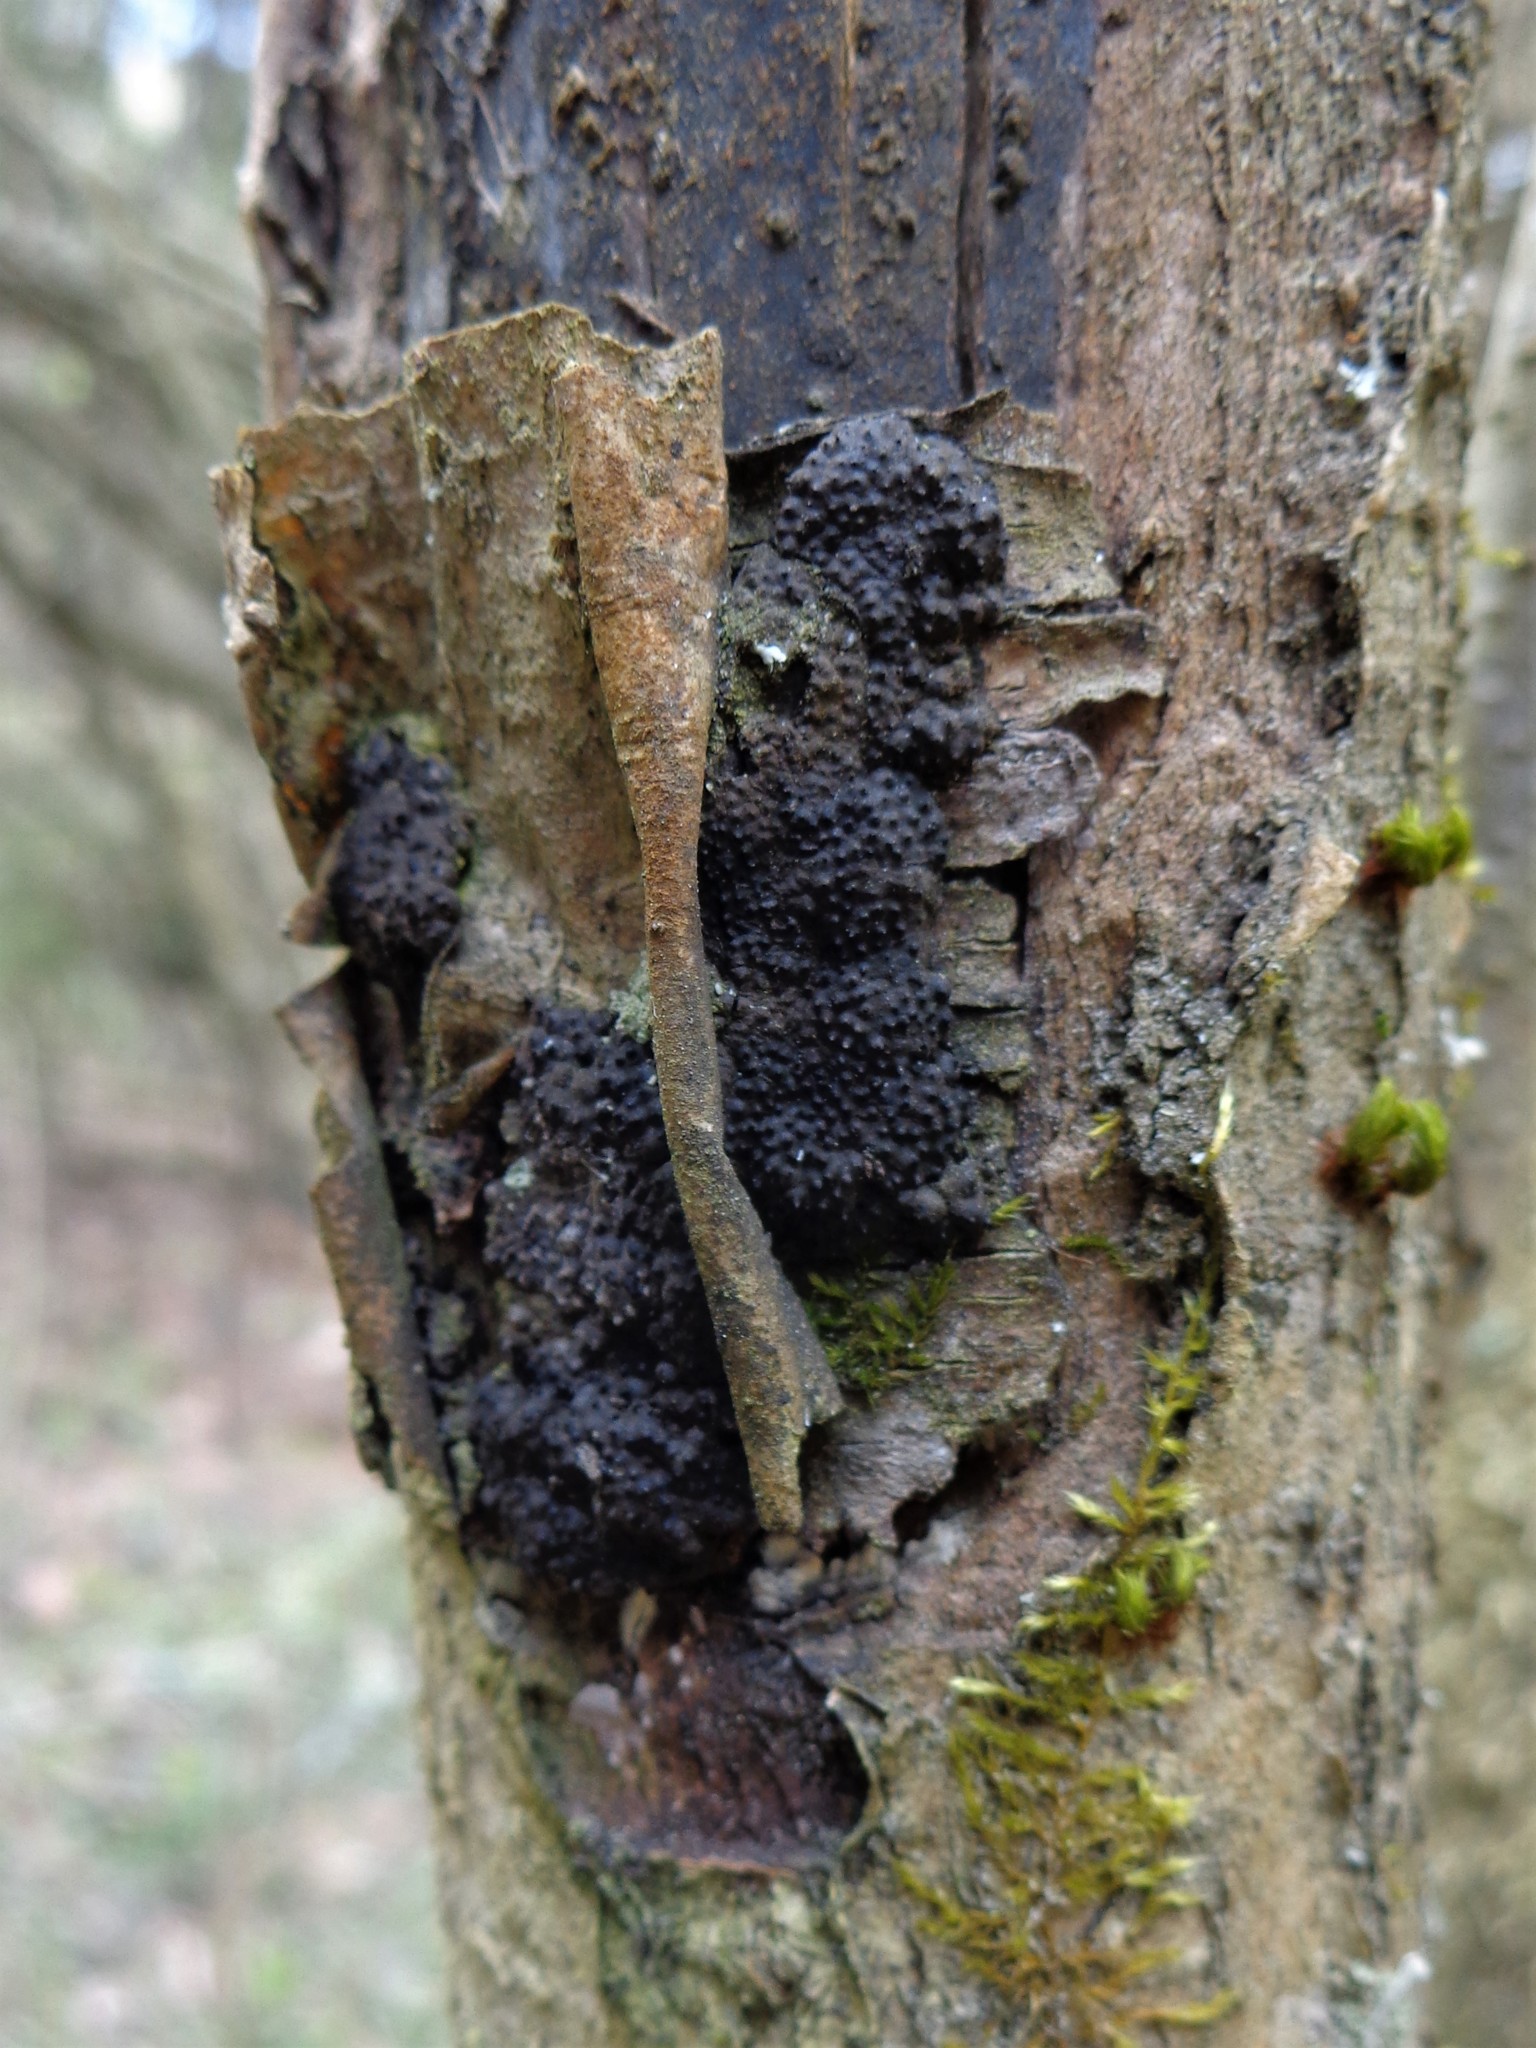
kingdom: Fungi
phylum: Ascomycota
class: Sordariomycetes
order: Xylariales
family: Hypoxylaceae
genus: Jackrogersella
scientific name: Jackrogersella multiformis
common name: Birch woodwart
